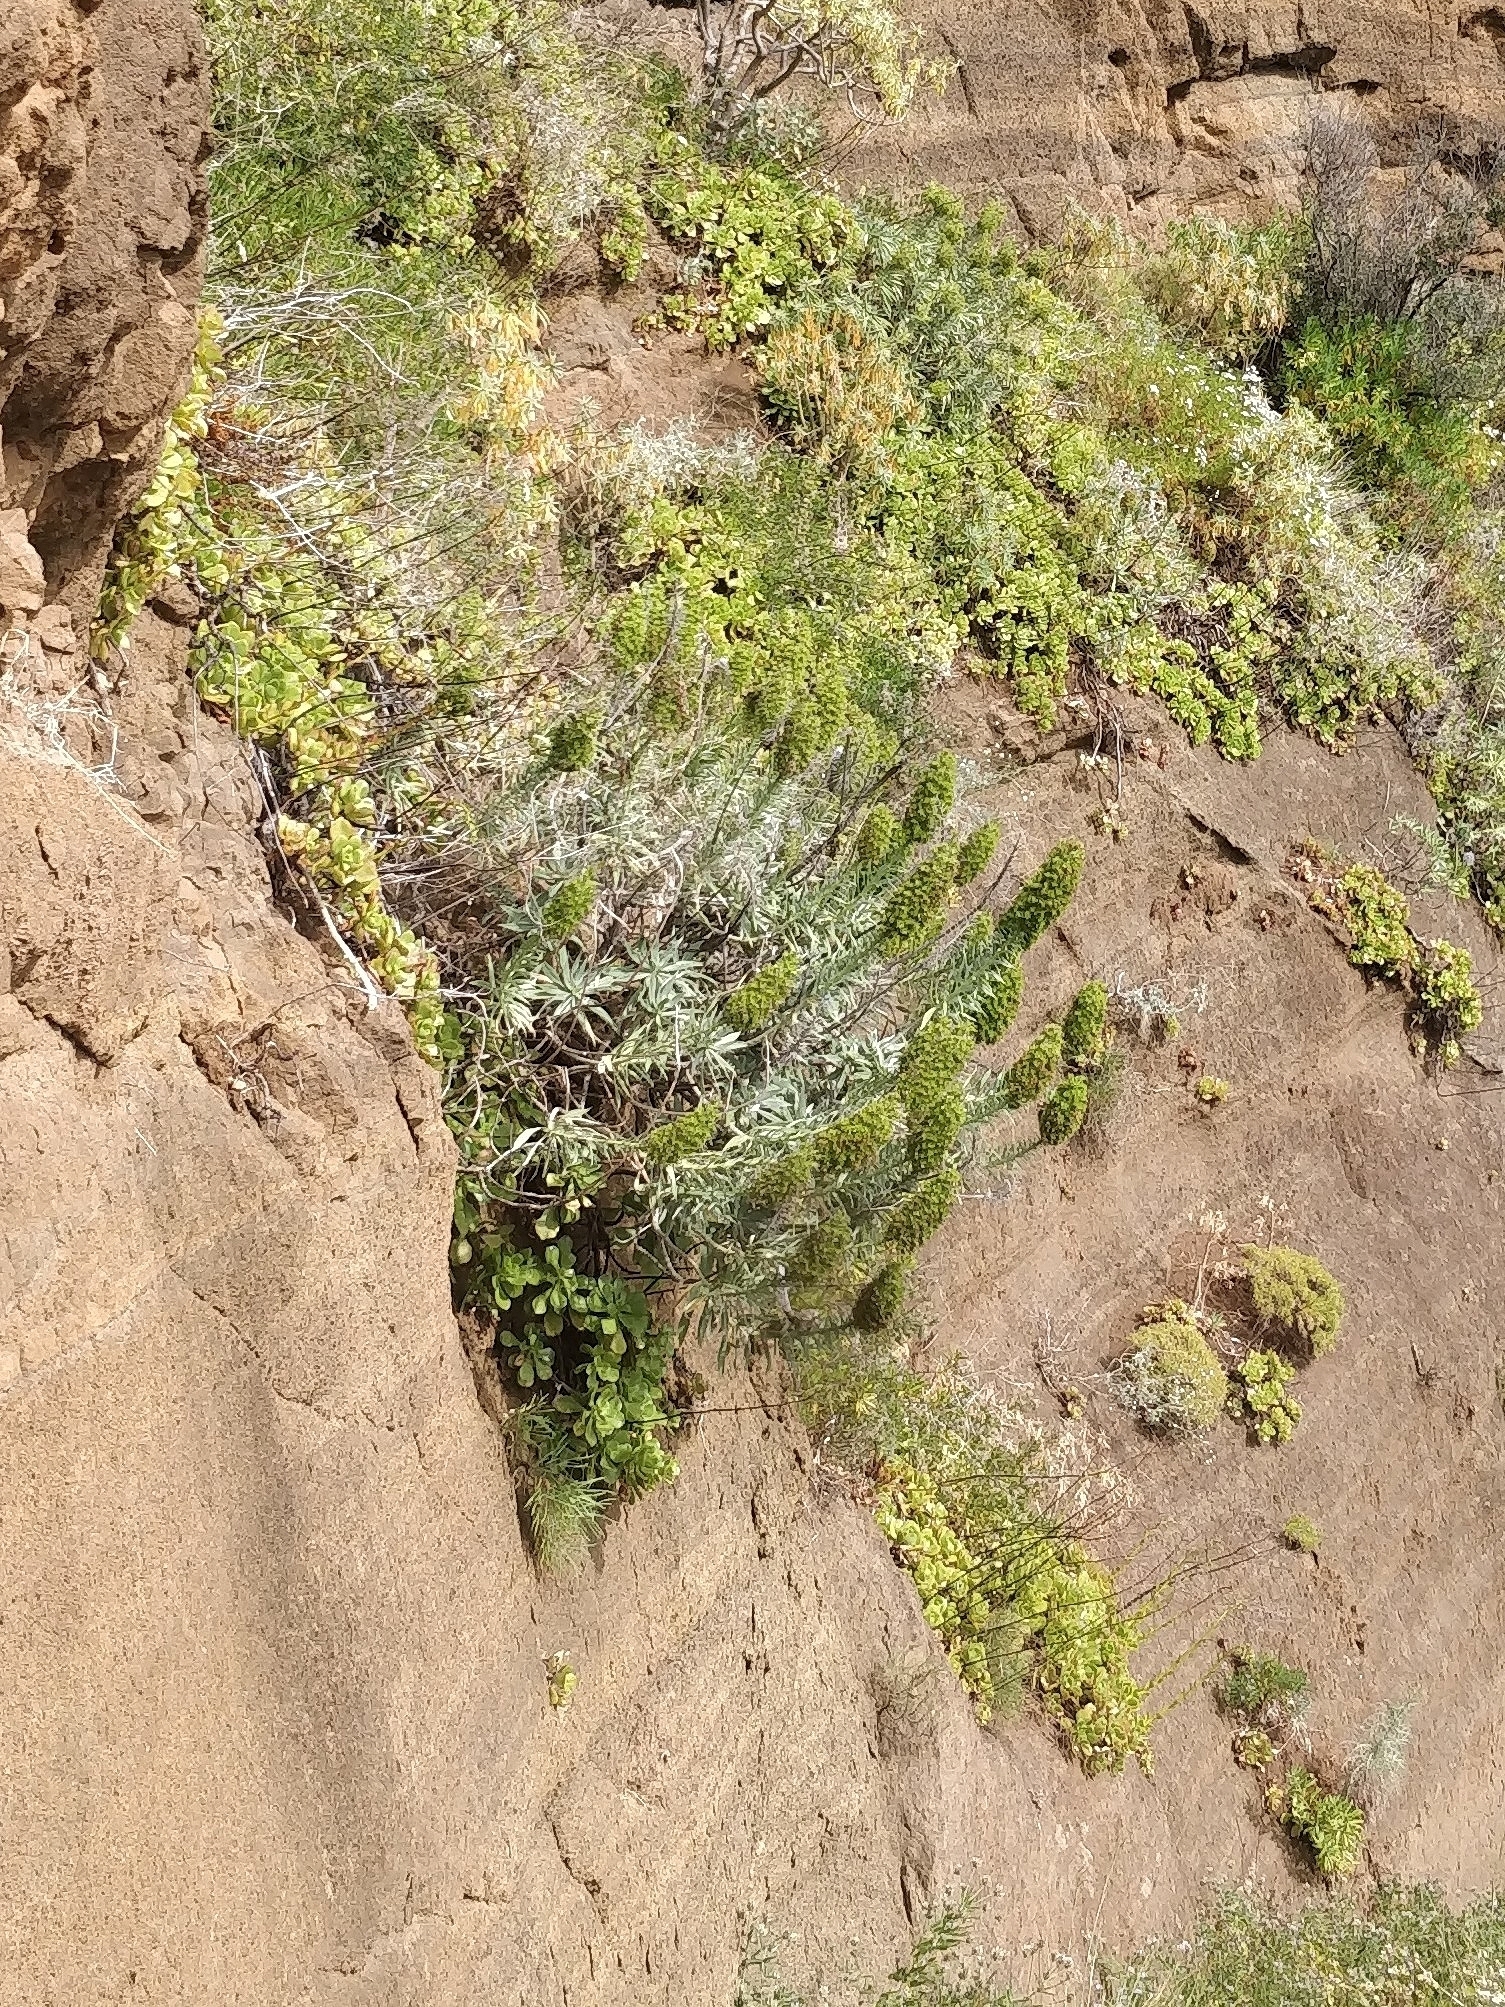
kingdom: Plantae
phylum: Tracheophyta
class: Magnoliopsida
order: Boraginales
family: Boraginaceae
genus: Echium
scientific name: Echium nervosum
